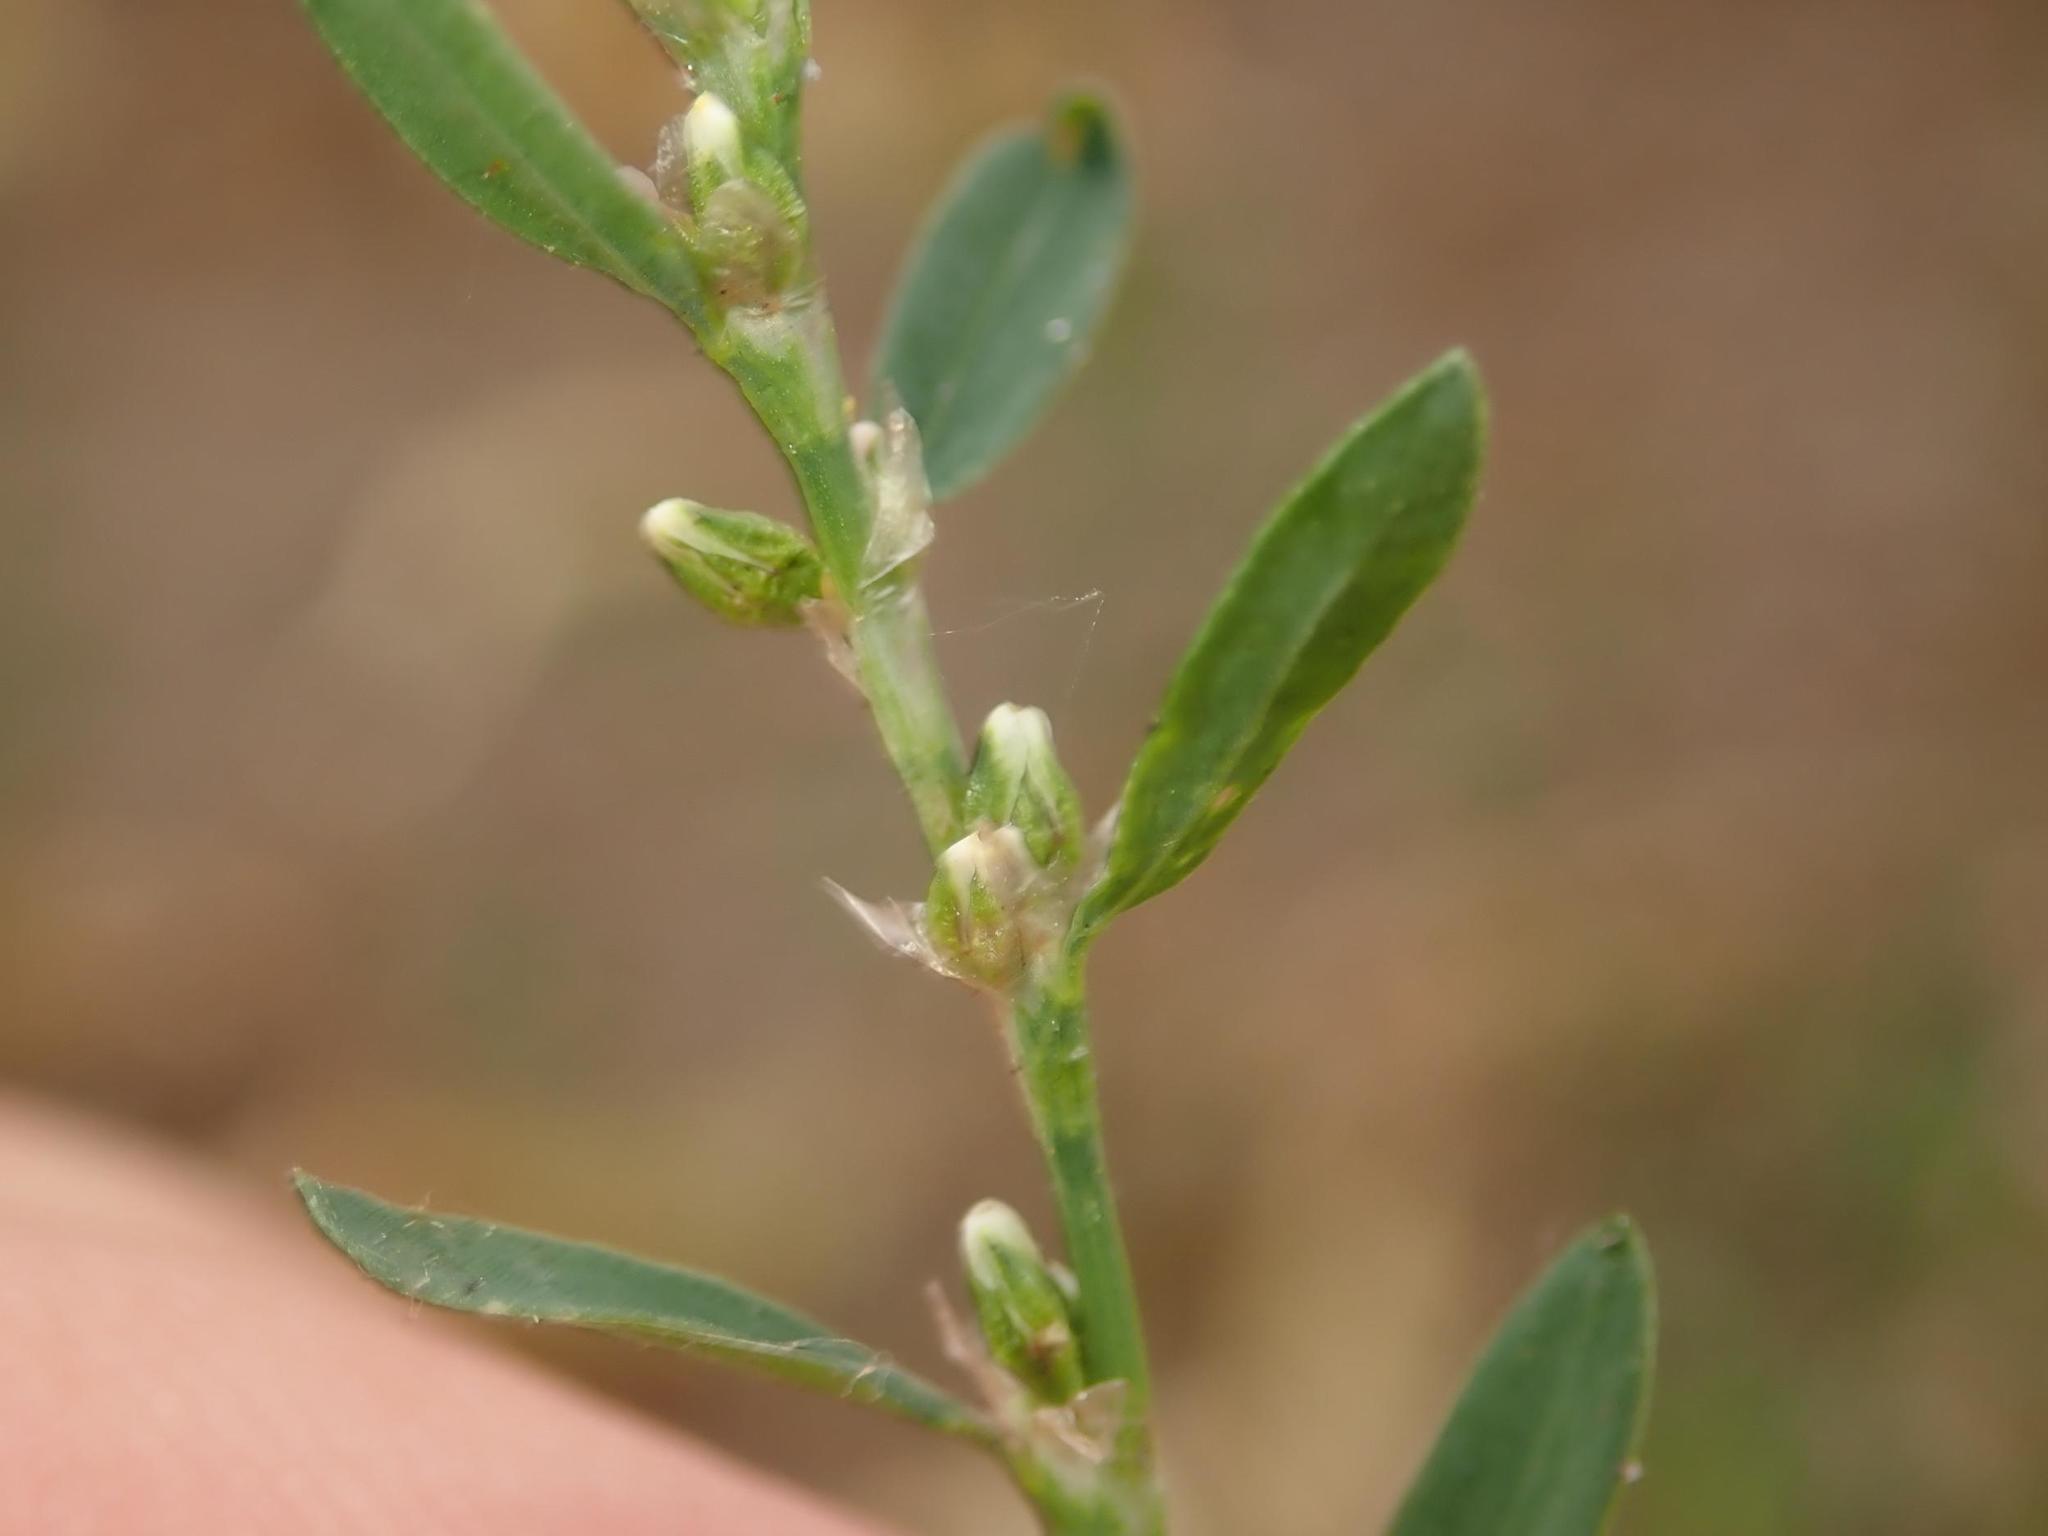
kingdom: Plantae
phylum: Tracheophyta
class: Magnoliopsida
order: Caryophyllales
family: Polygonaceae
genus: Polygonum
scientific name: Polygonum aviculare
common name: Prostrate knotweed
